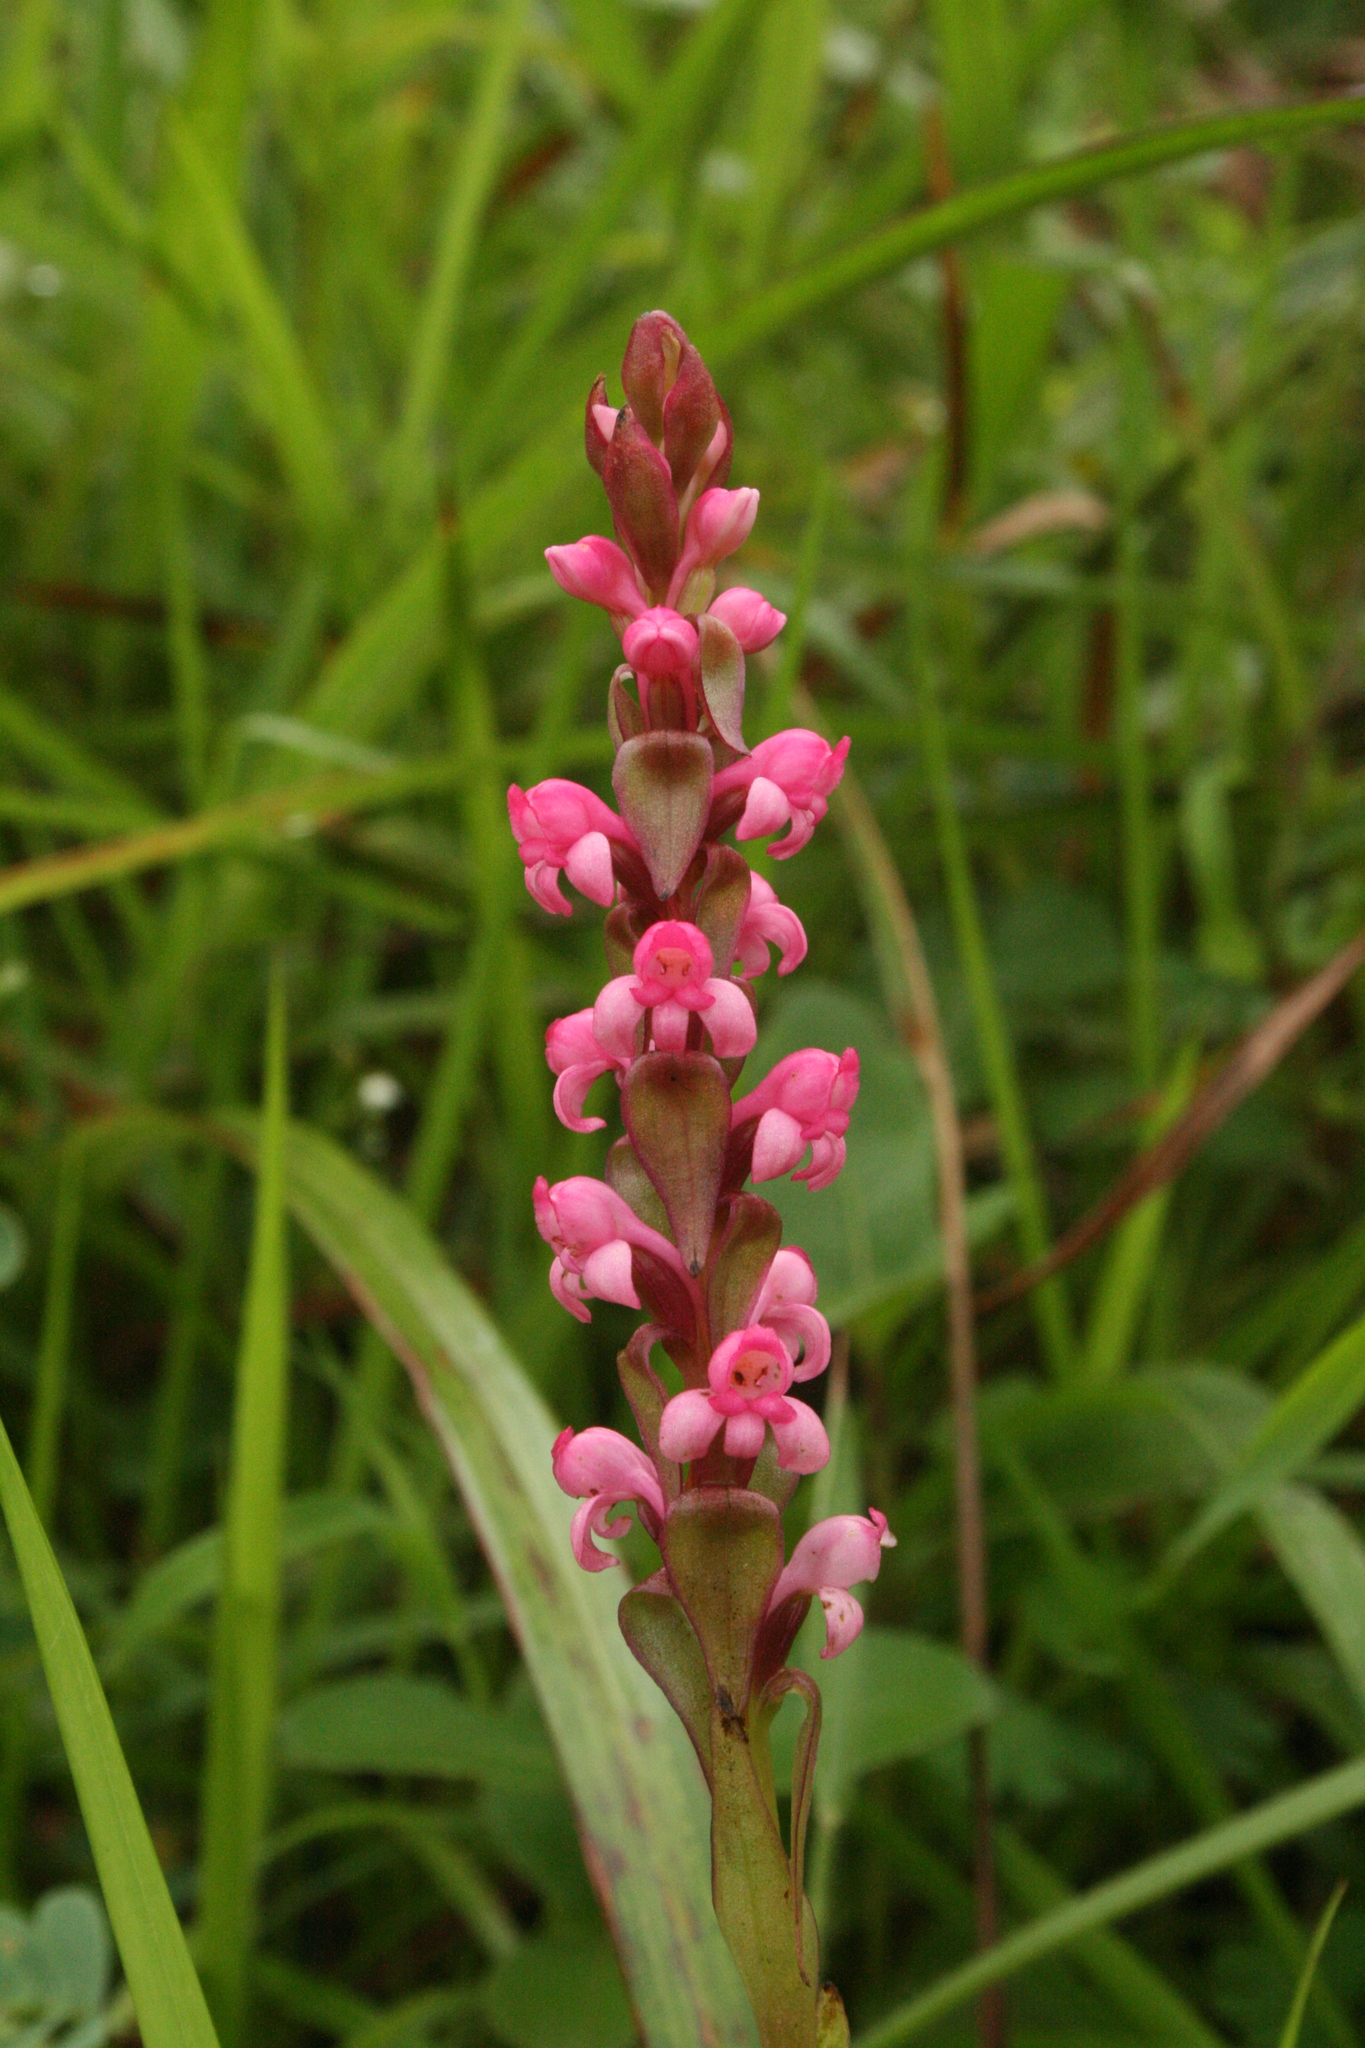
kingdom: Plantae
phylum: Tracheophyta
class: Liliopsida
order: Asparagales
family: Orchidaceae
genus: Satyrium
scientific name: Satyrium nepalense
